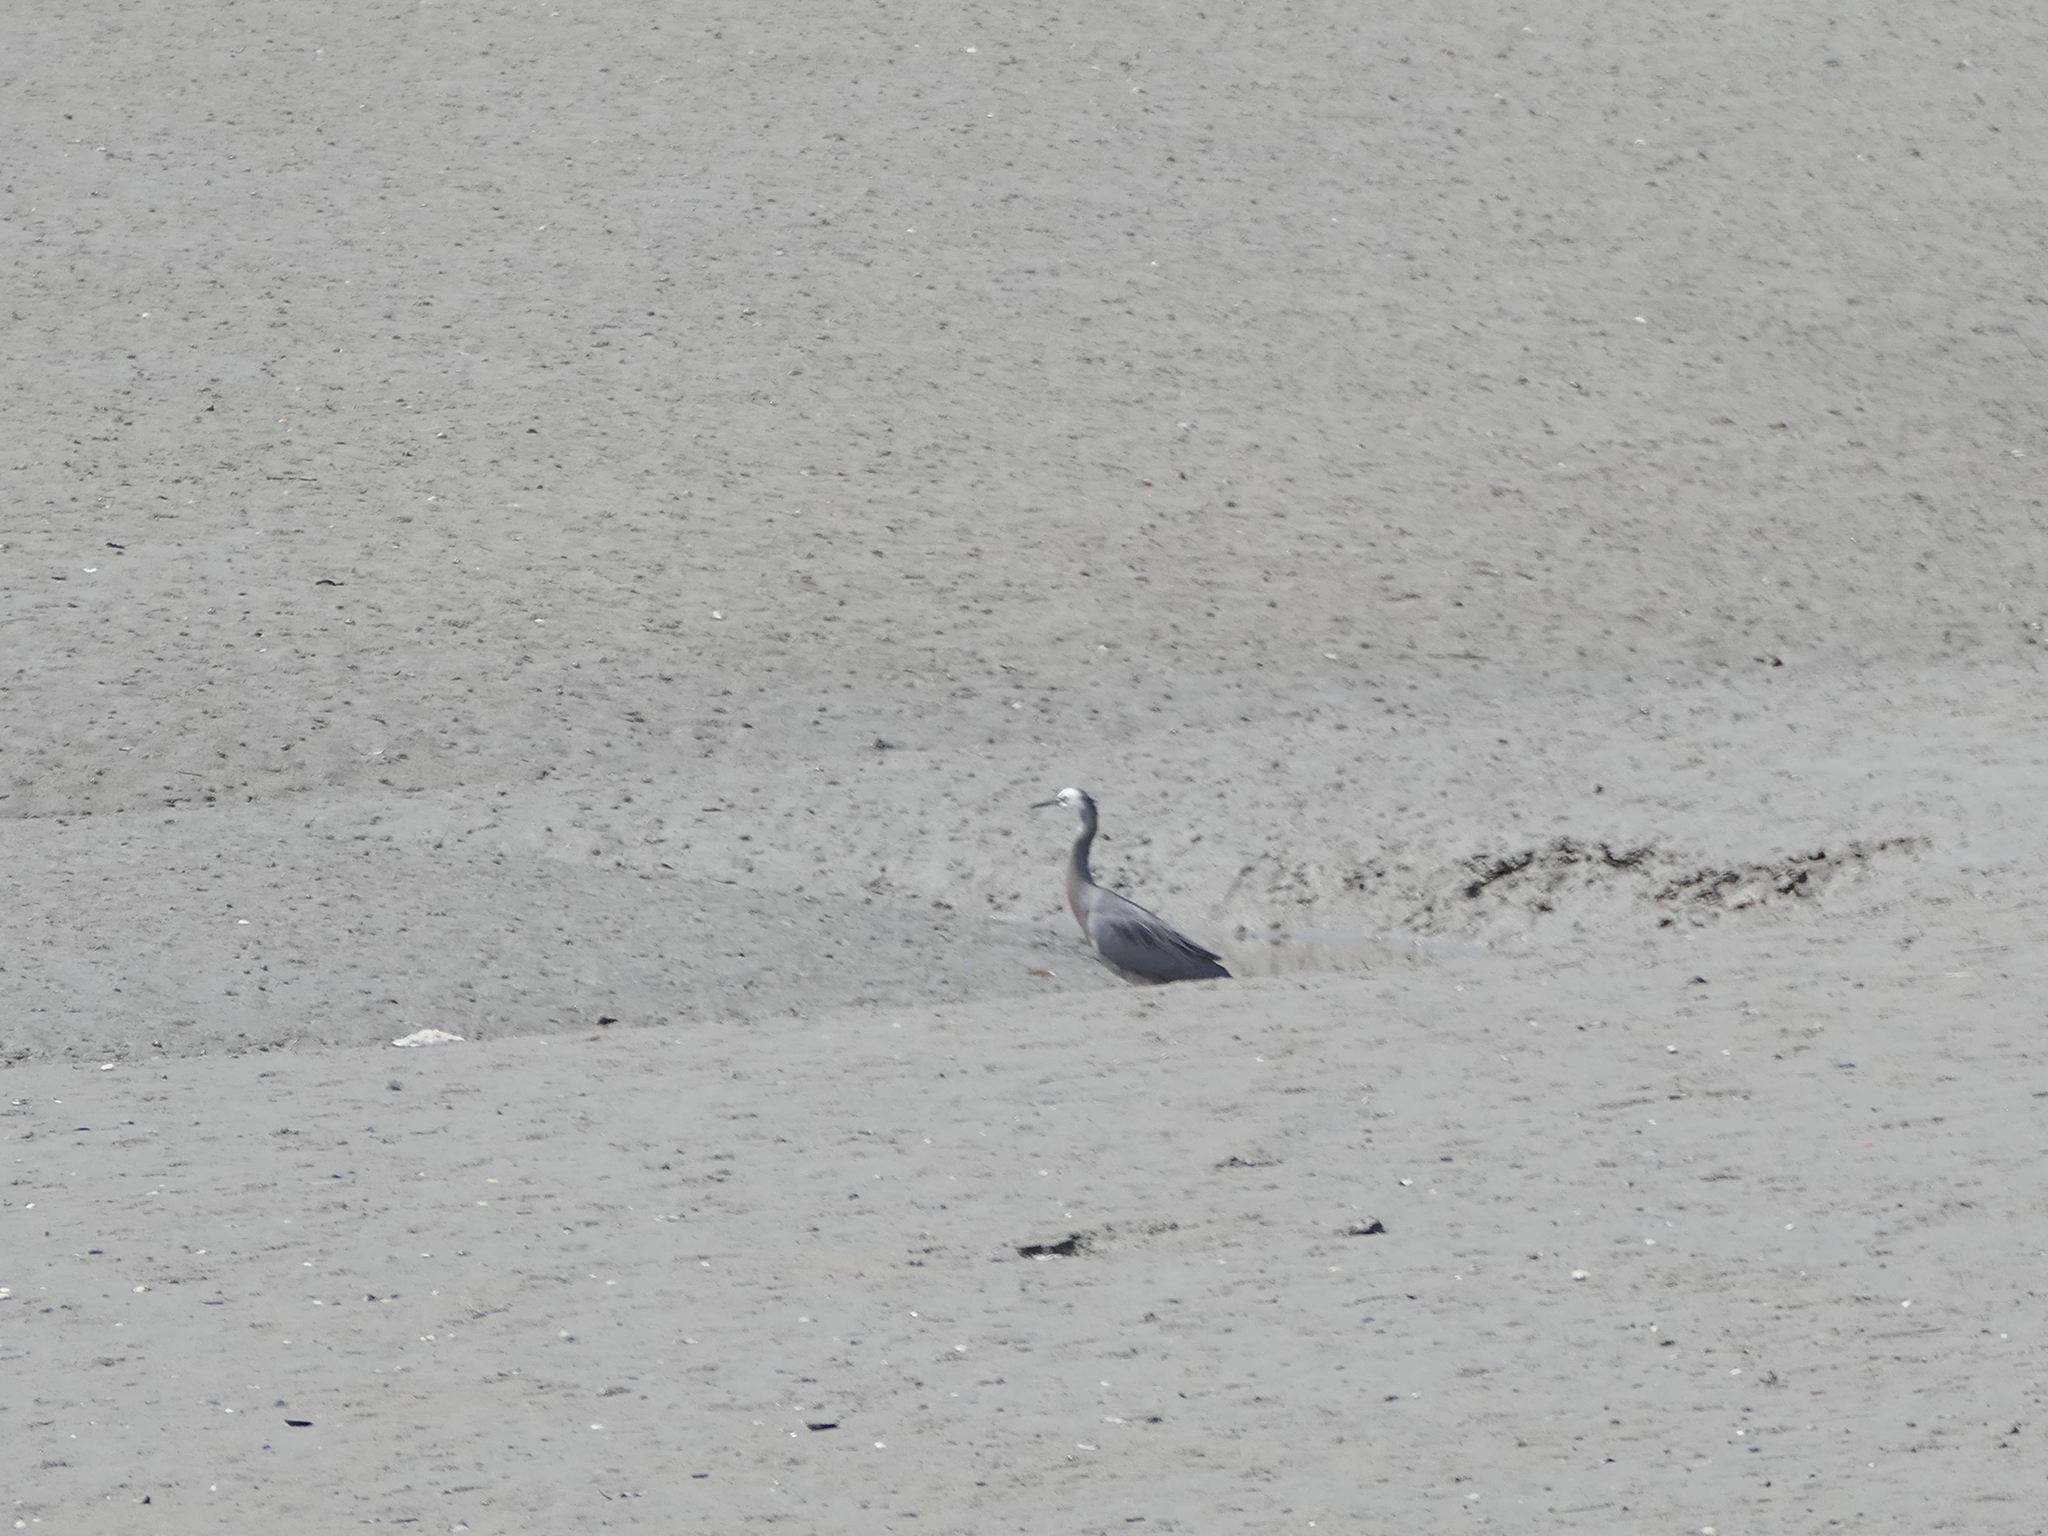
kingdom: Animalia
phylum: Chordata
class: Aves
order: Pelecaniformes
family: Ardeidae
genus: Egretta
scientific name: Egretta novaehollandiae
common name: White-faced heron
